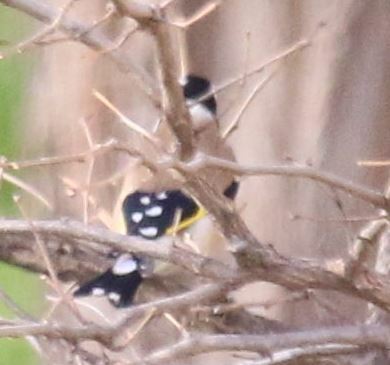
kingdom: Animalia
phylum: Chordata
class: Aves
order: Passeriformes
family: Fringillidae
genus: Carduelis
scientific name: Carduelis carduelis
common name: European goldfinch
